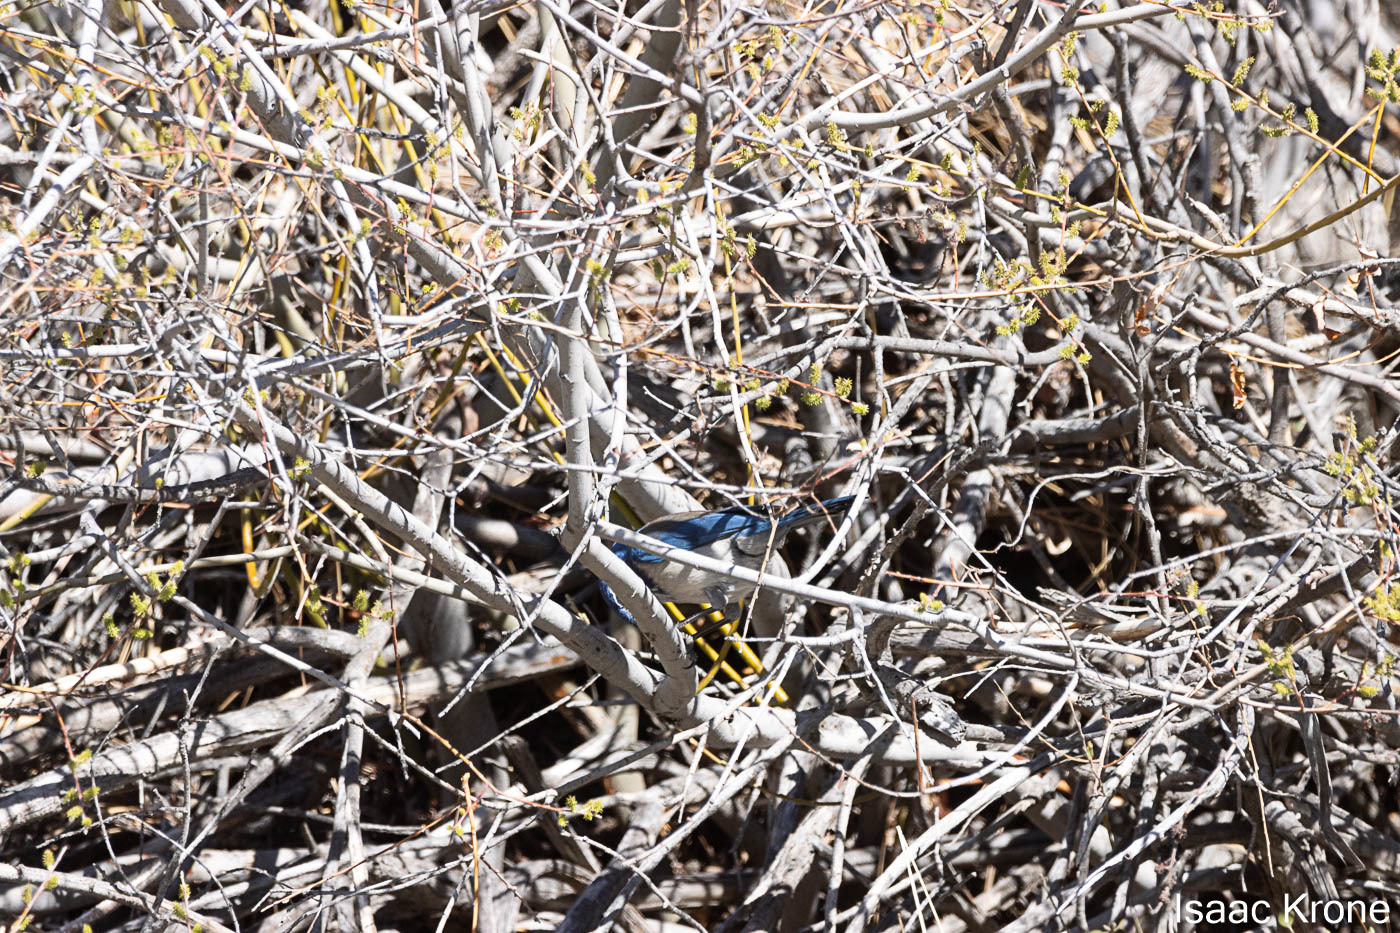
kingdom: Animalia
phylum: Chordata
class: Aves
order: Passeriformes
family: Corvidae
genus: Aphelocoma
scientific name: Aphelocoma californica
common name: California scrub-jay
